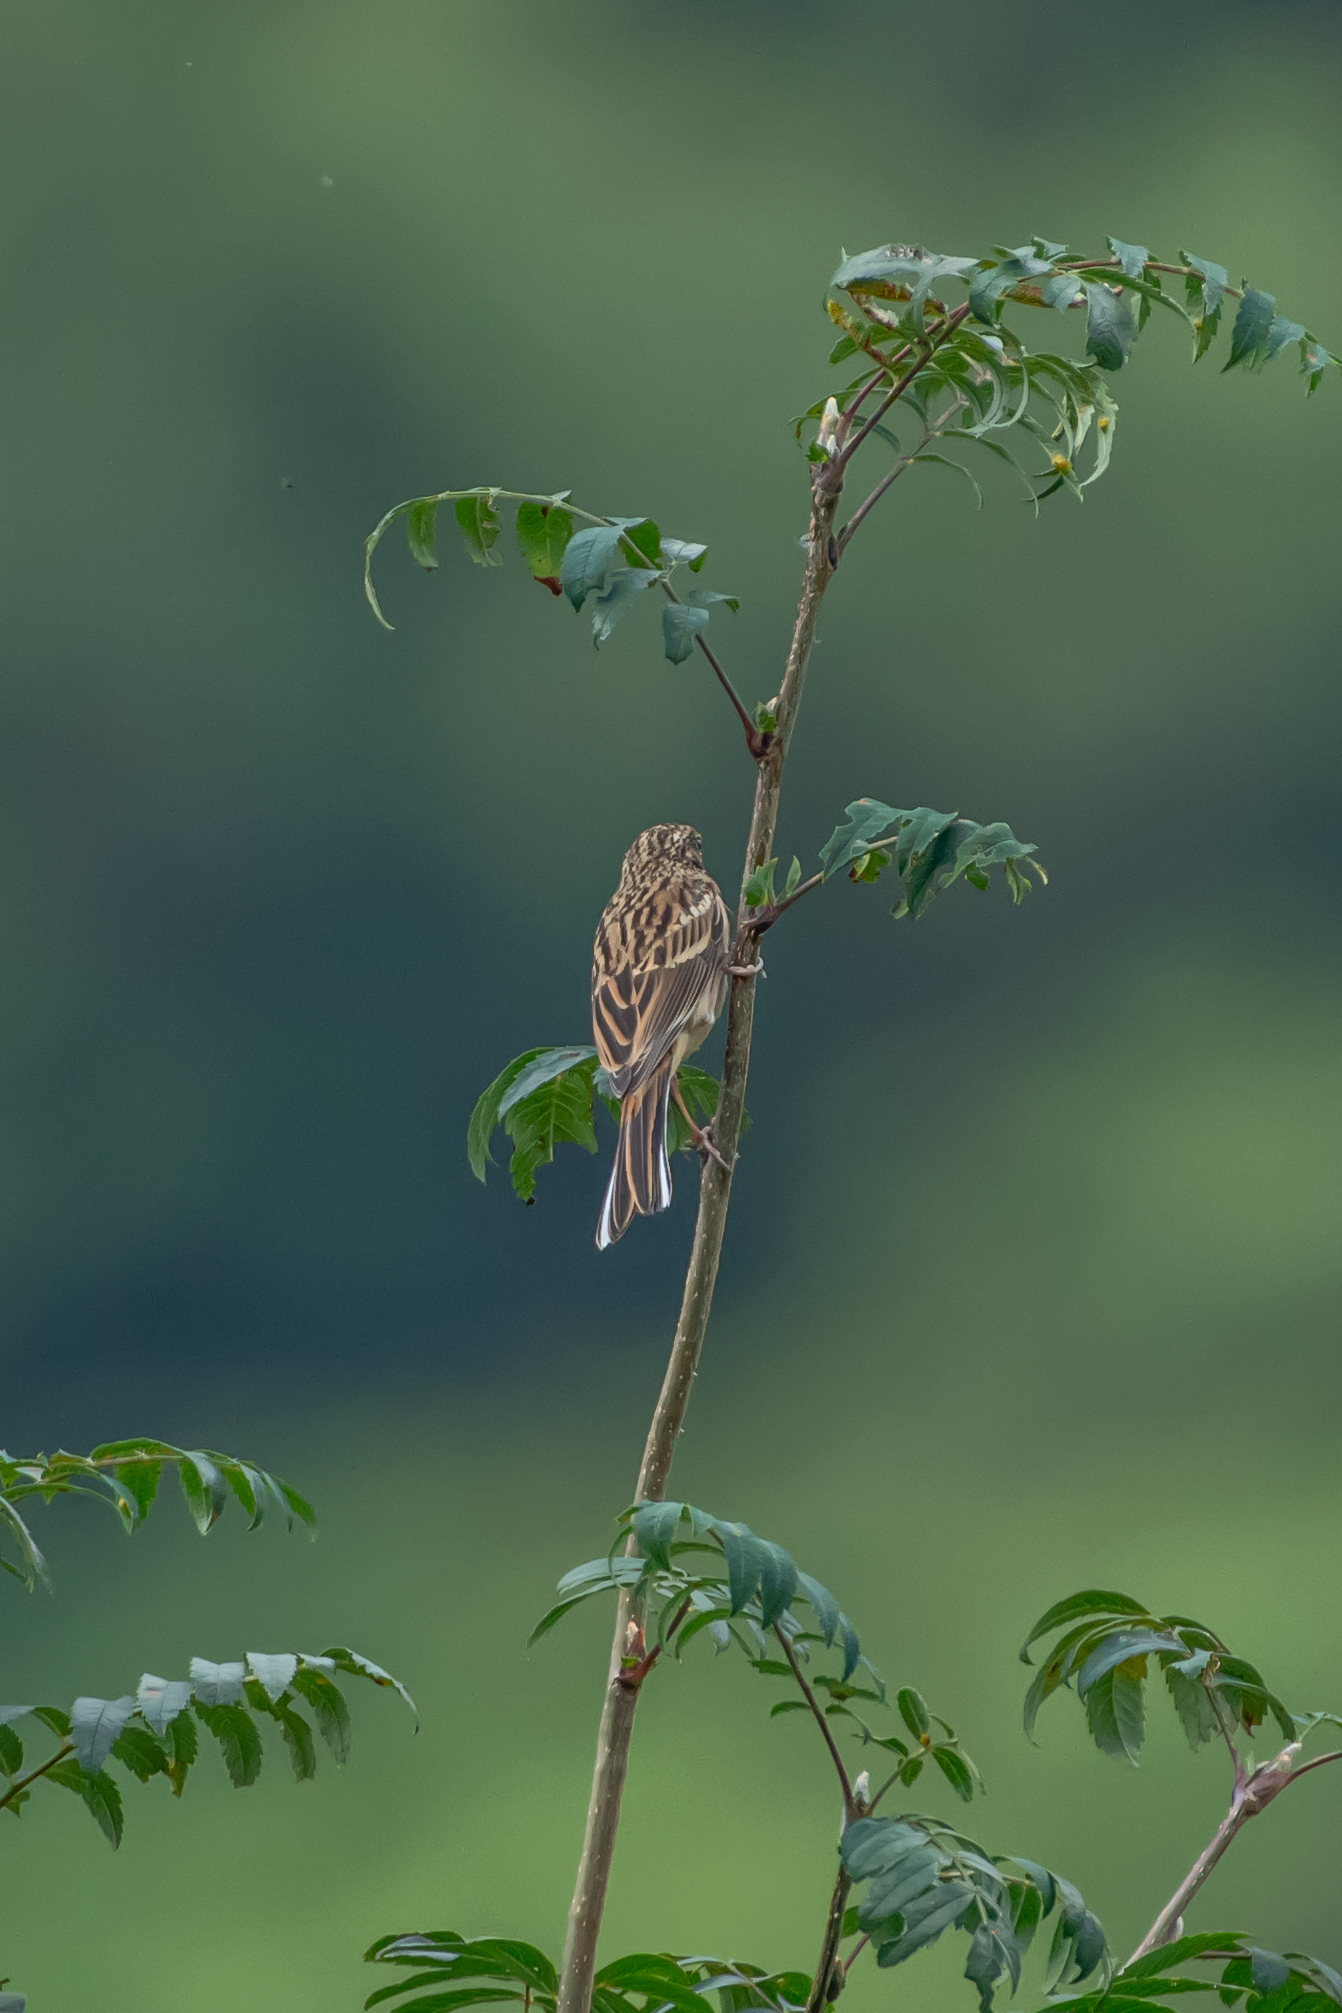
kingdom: Animalia
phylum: Chordata
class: Aves
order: Passeriformes
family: Emberizidae
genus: Emberiza
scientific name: Emberiza cia
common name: Rock bunting
